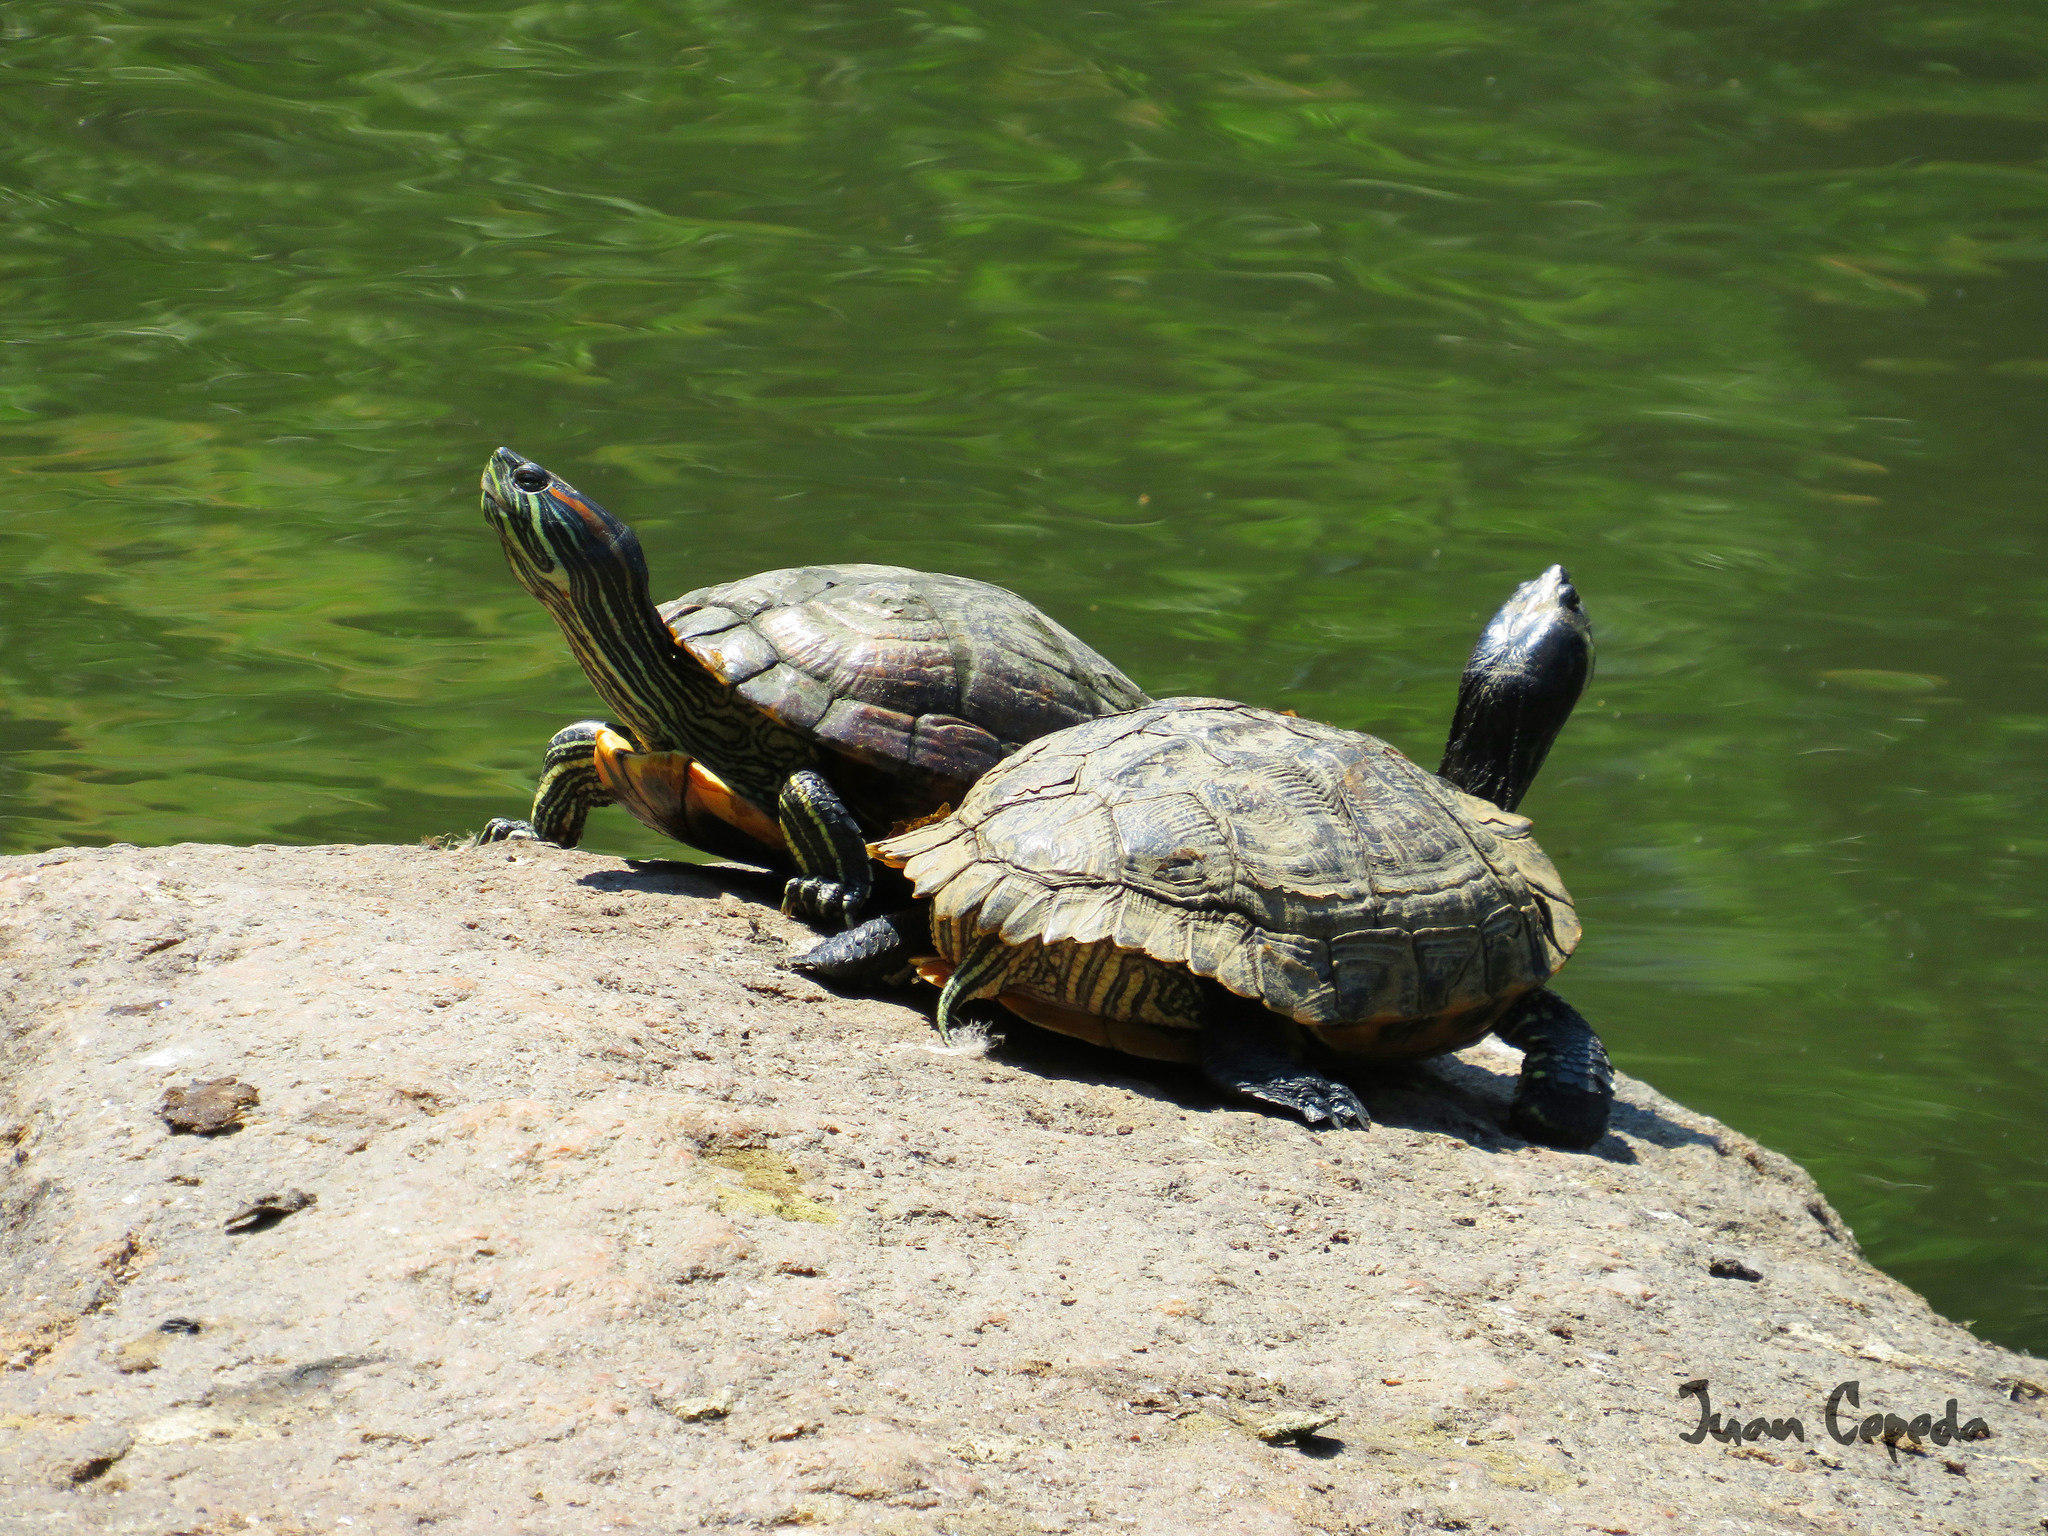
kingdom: Animalia
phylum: Chordata
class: Testudines
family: Emydidae
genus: Trachemys
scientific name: Trachemys scripta
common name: Slider
